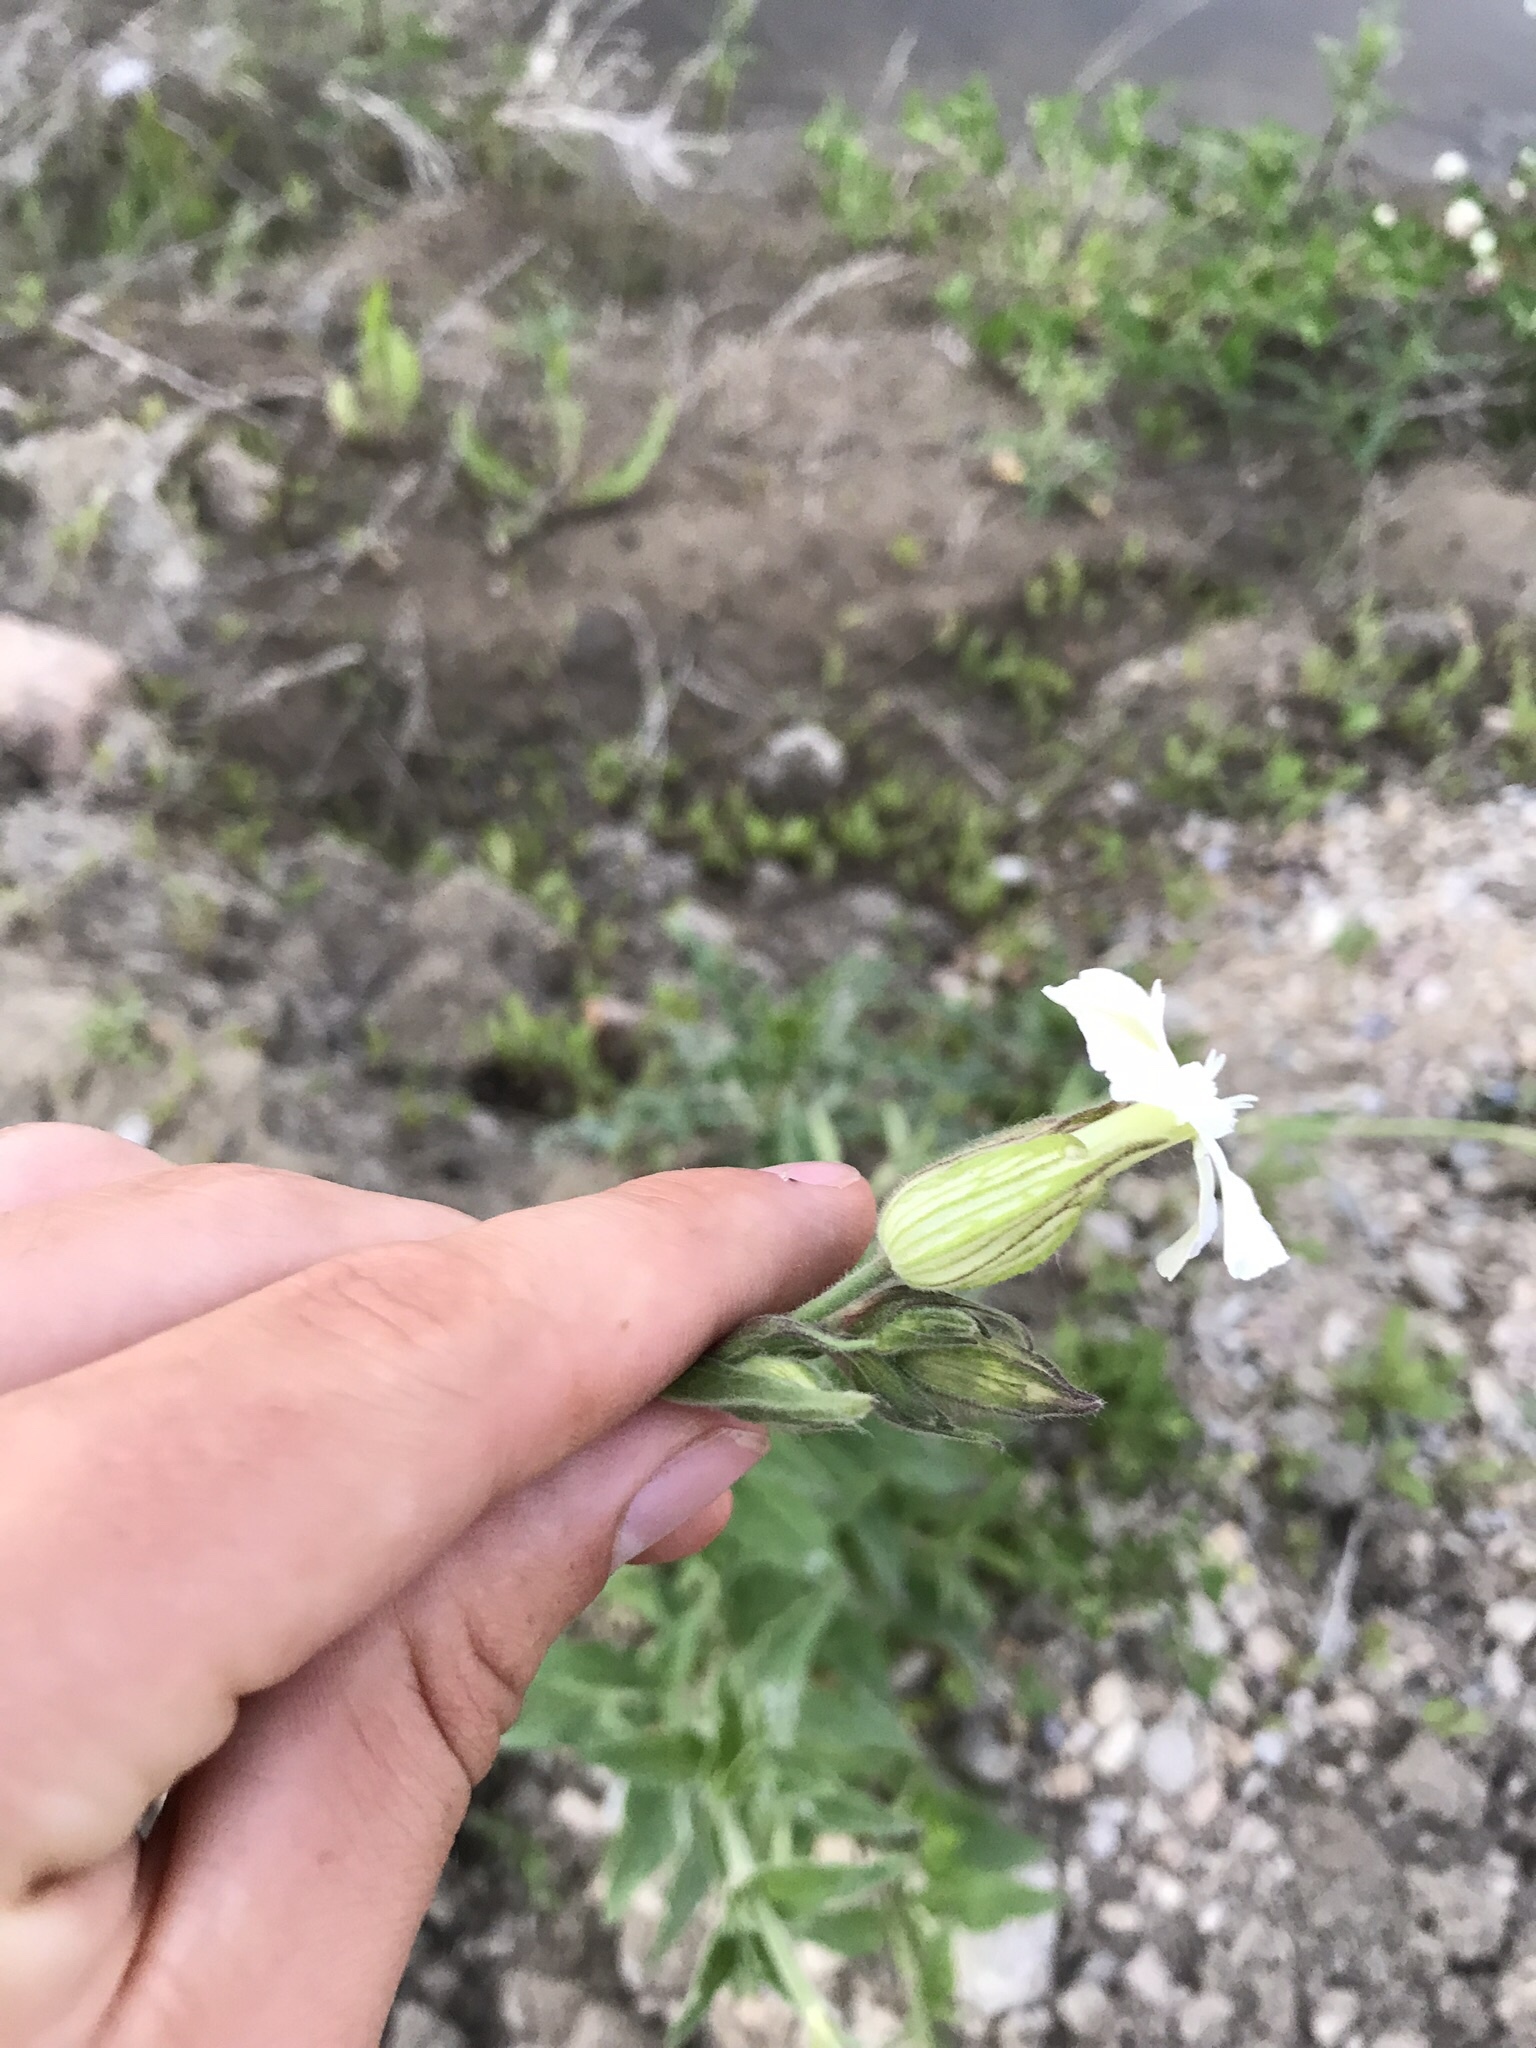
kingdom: Plantae
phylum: Tracheophyta
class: Magnoliopsida
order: Caryophyllales
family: Caryophyllaceae
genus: Silene
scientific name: Silene latifolia
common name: White campion
